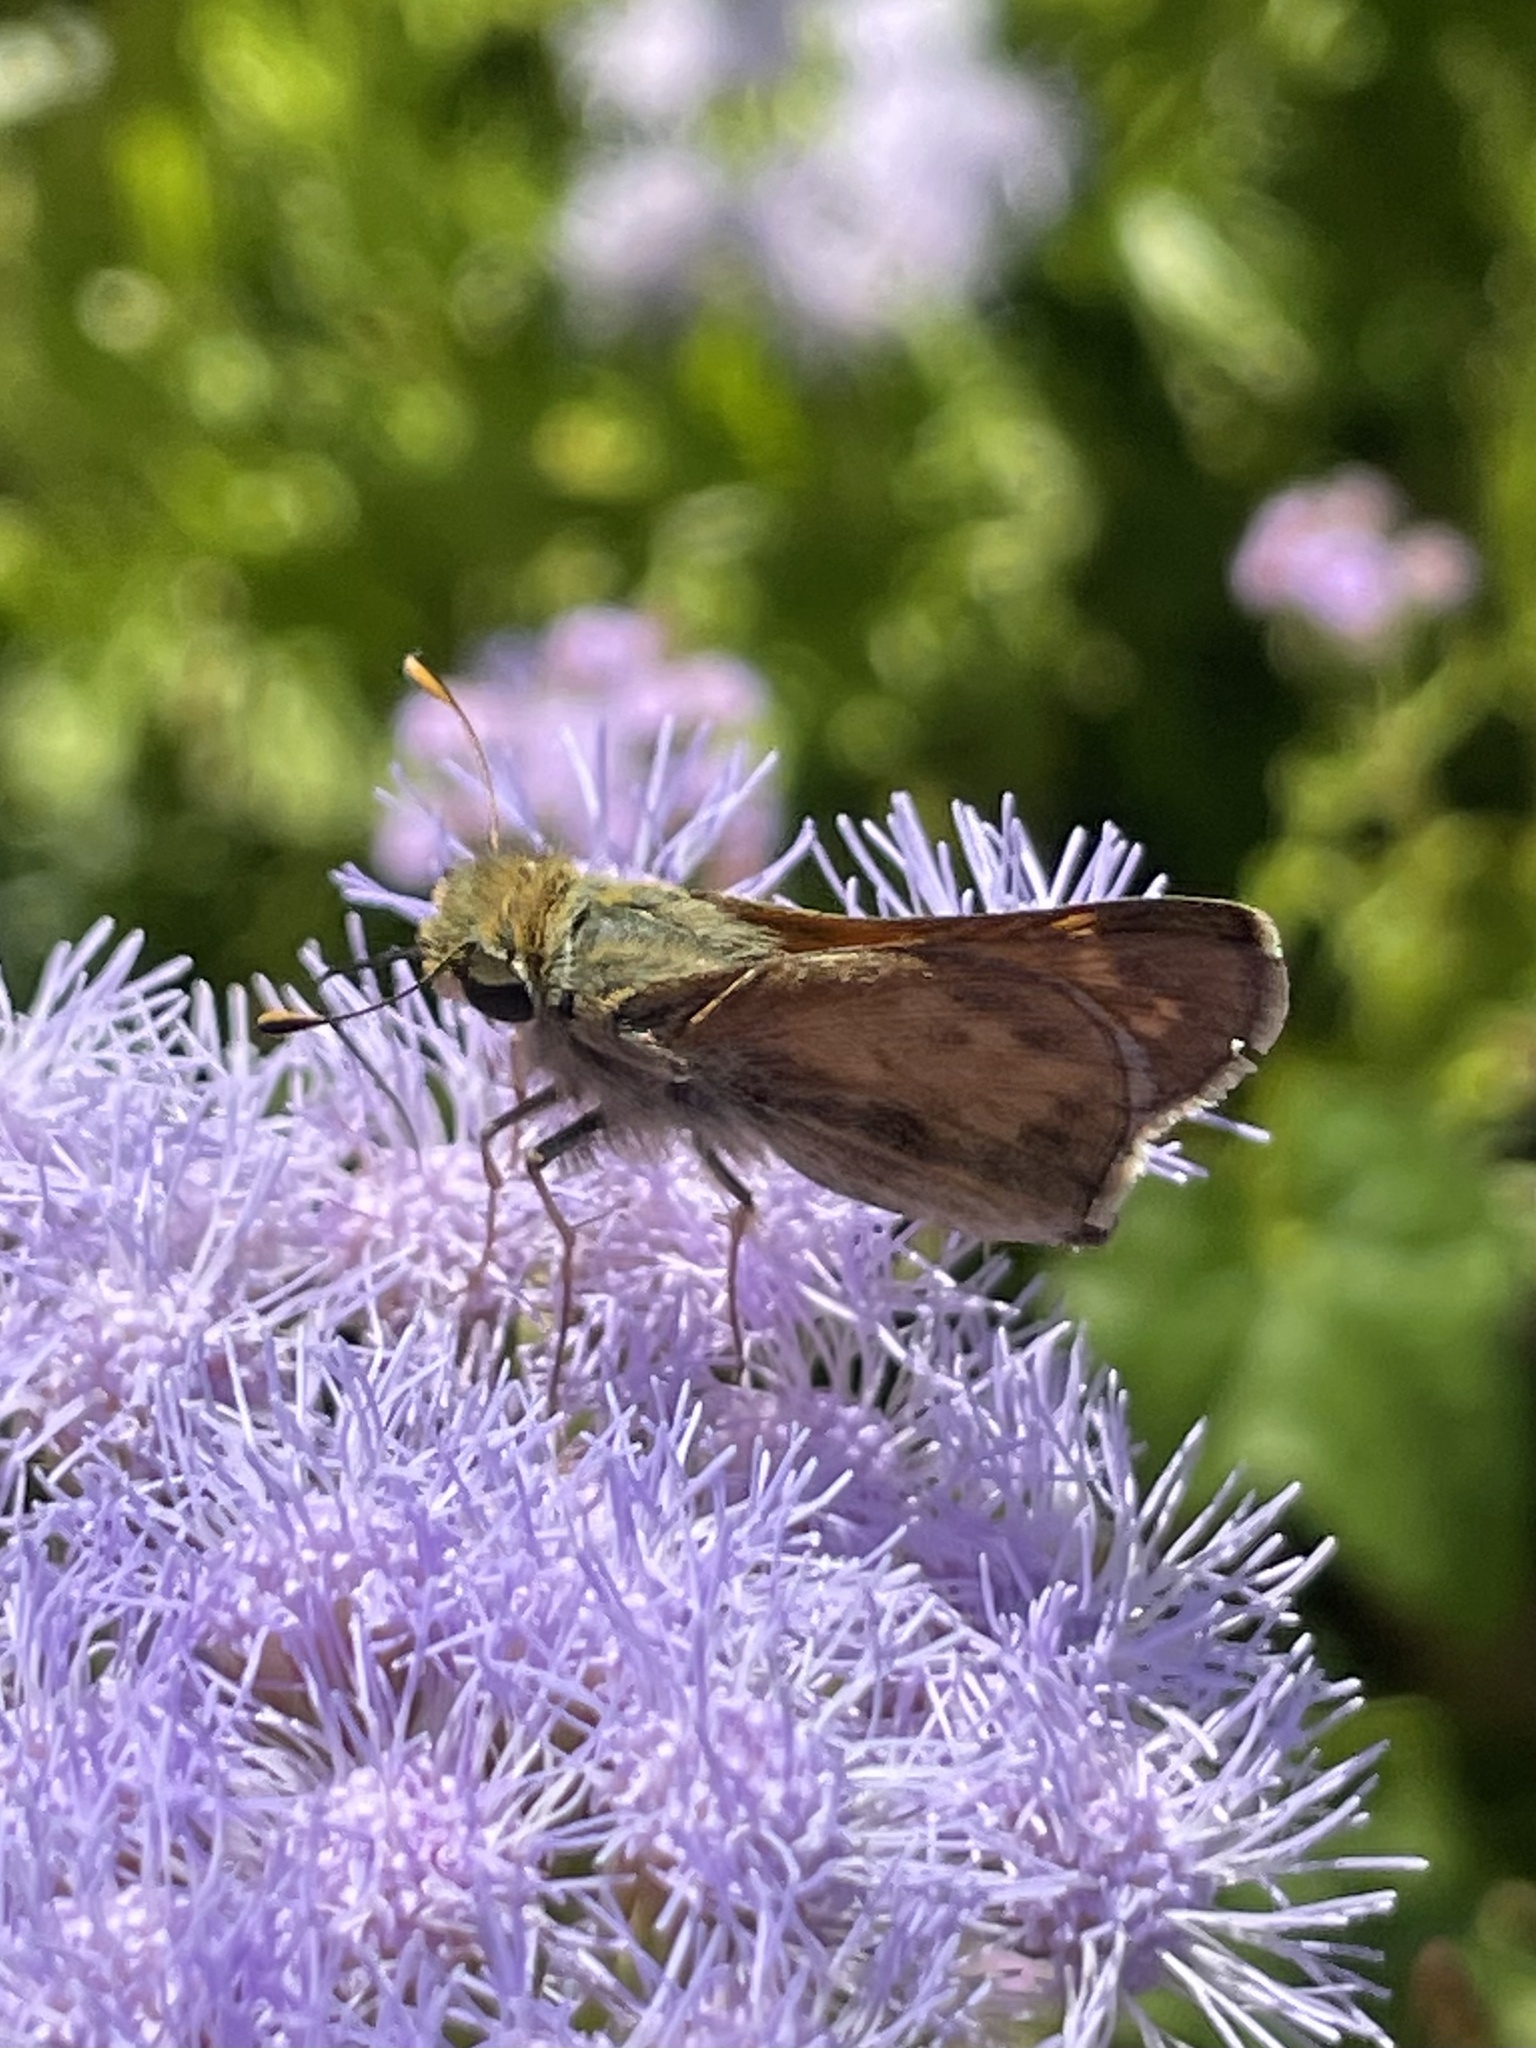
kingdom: Animalia
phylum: Arthropoda
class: Insecta
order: Lepidoptera
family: Hesperiidae
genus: Atalopedes
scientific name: Atalopedes
